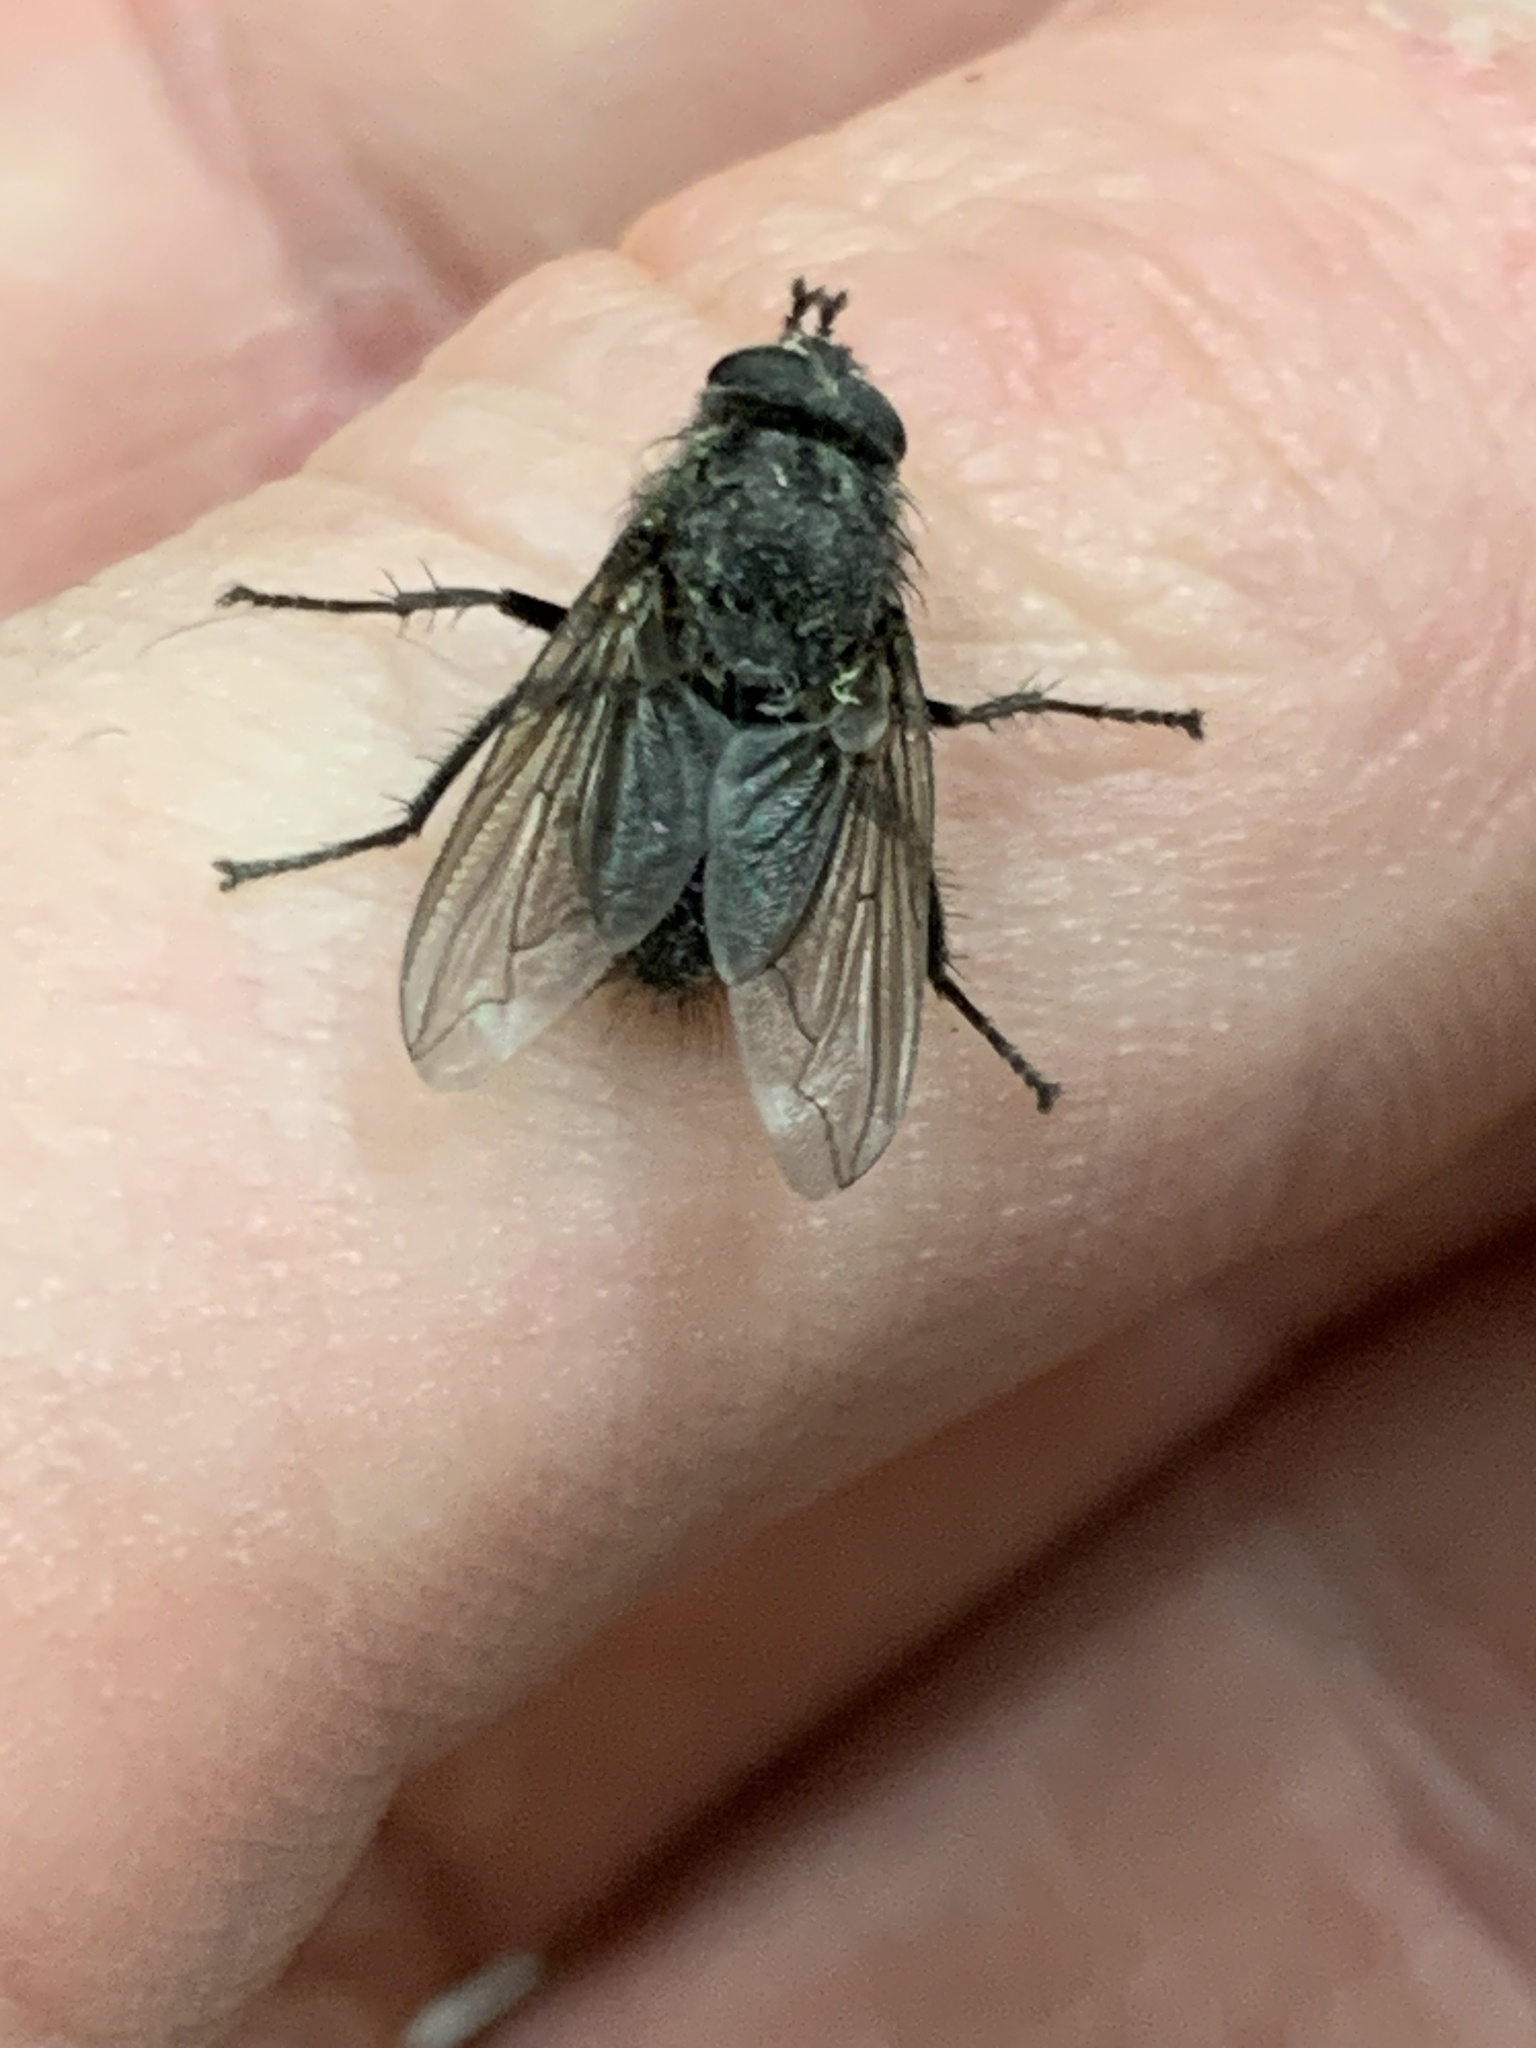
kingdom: Animalia
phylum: Arthropoda
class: Insecta
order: Diptera
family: Polleniidae
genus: Pollenia
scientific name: Pollenia vagabunda
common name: Vagabund cluster fly
